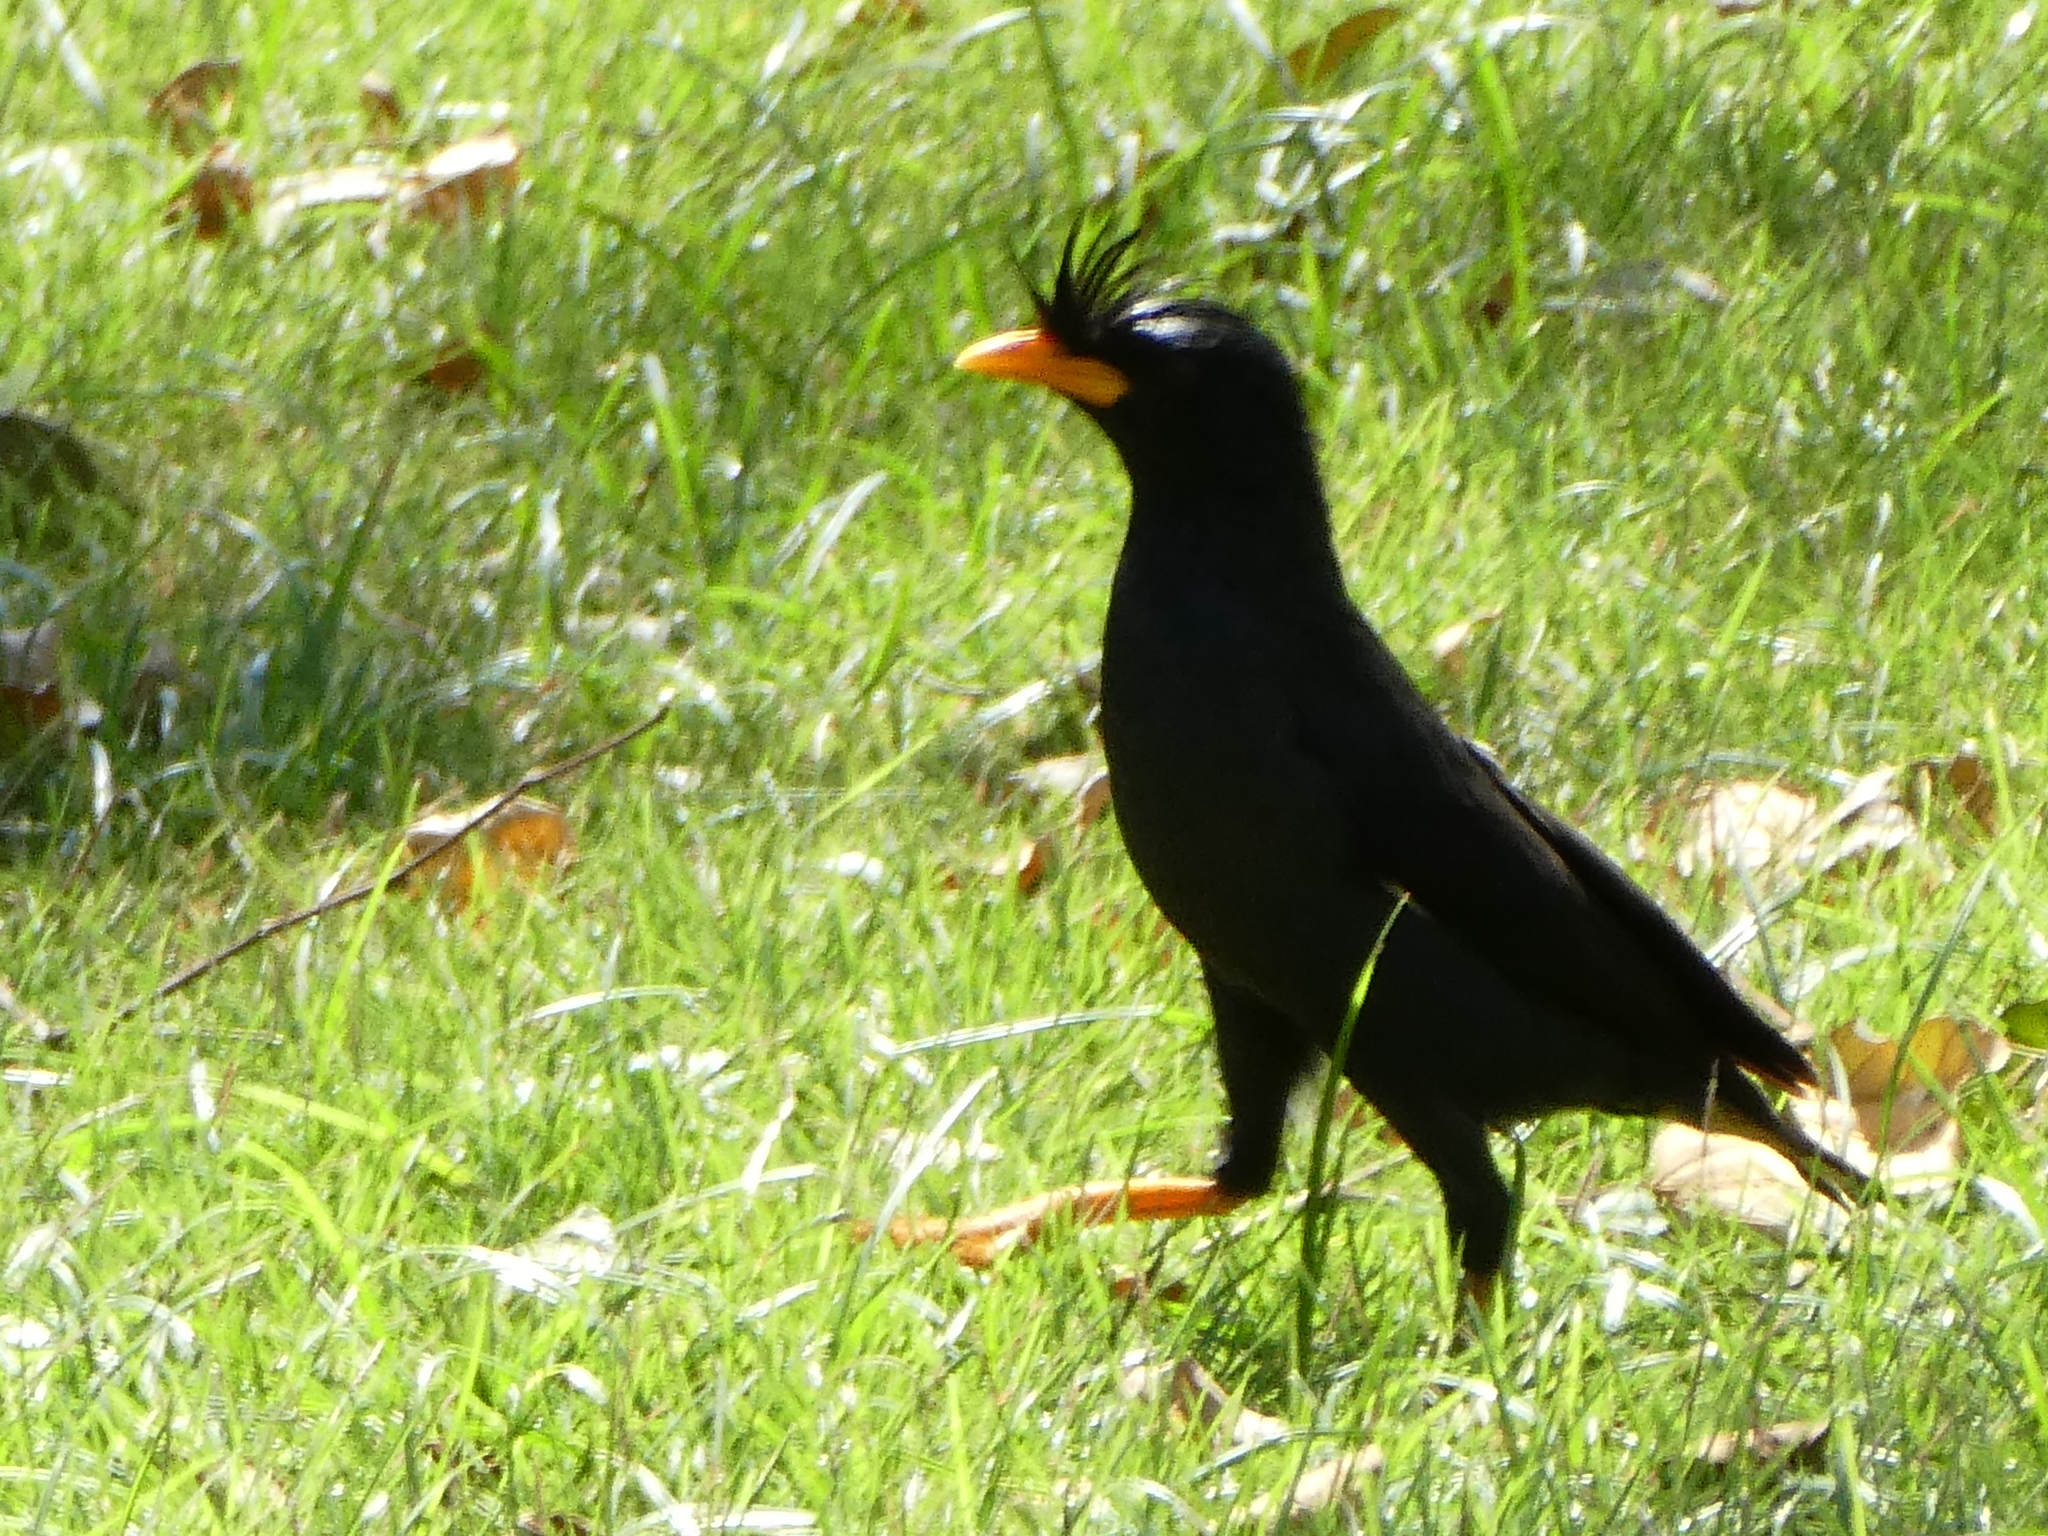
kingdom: Animalia
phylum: Chordata
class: Aves
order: Passeriformes
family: Sturnidae
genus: Acridotheres
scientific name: Acridotheres grandis
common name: Great myna
